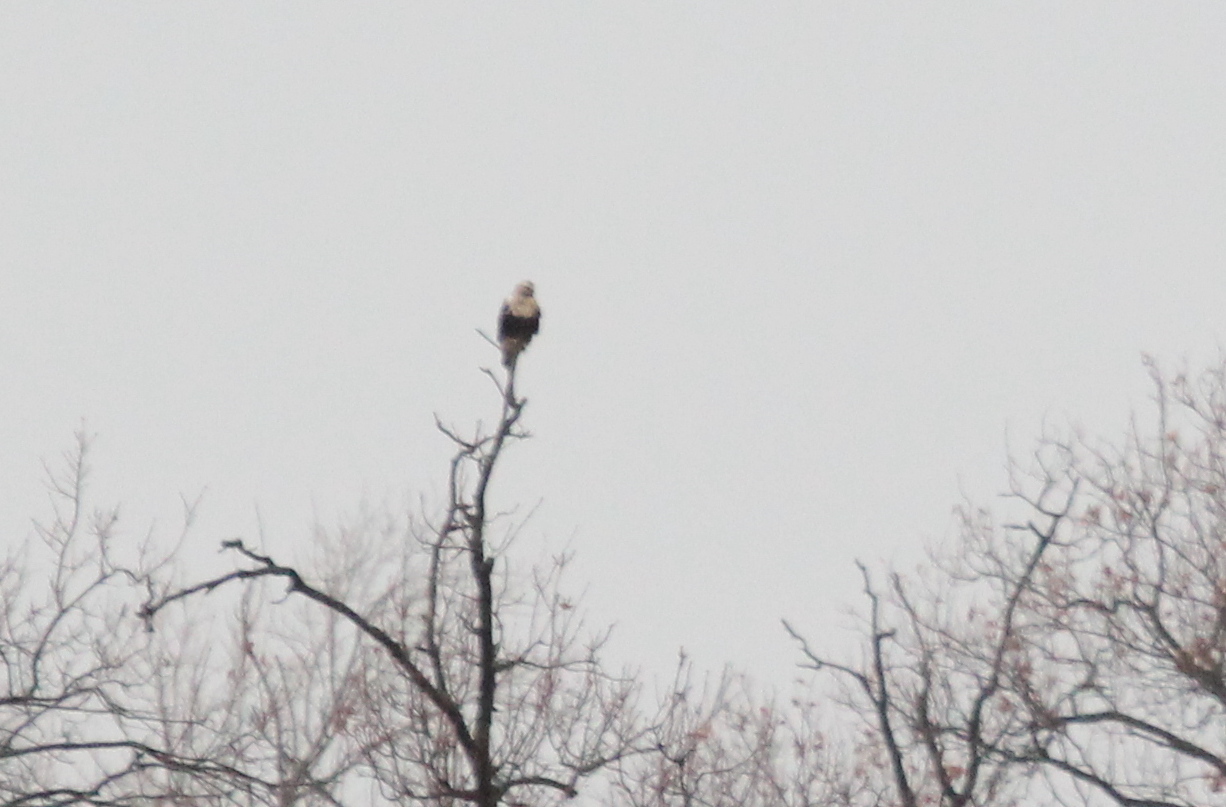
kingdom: Animalia
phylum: Chordata
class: Aves
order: Accipitriformes
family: Accipitridae
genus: Buteo
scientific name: Buteo lagopus
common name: Rough-legged buzzard
